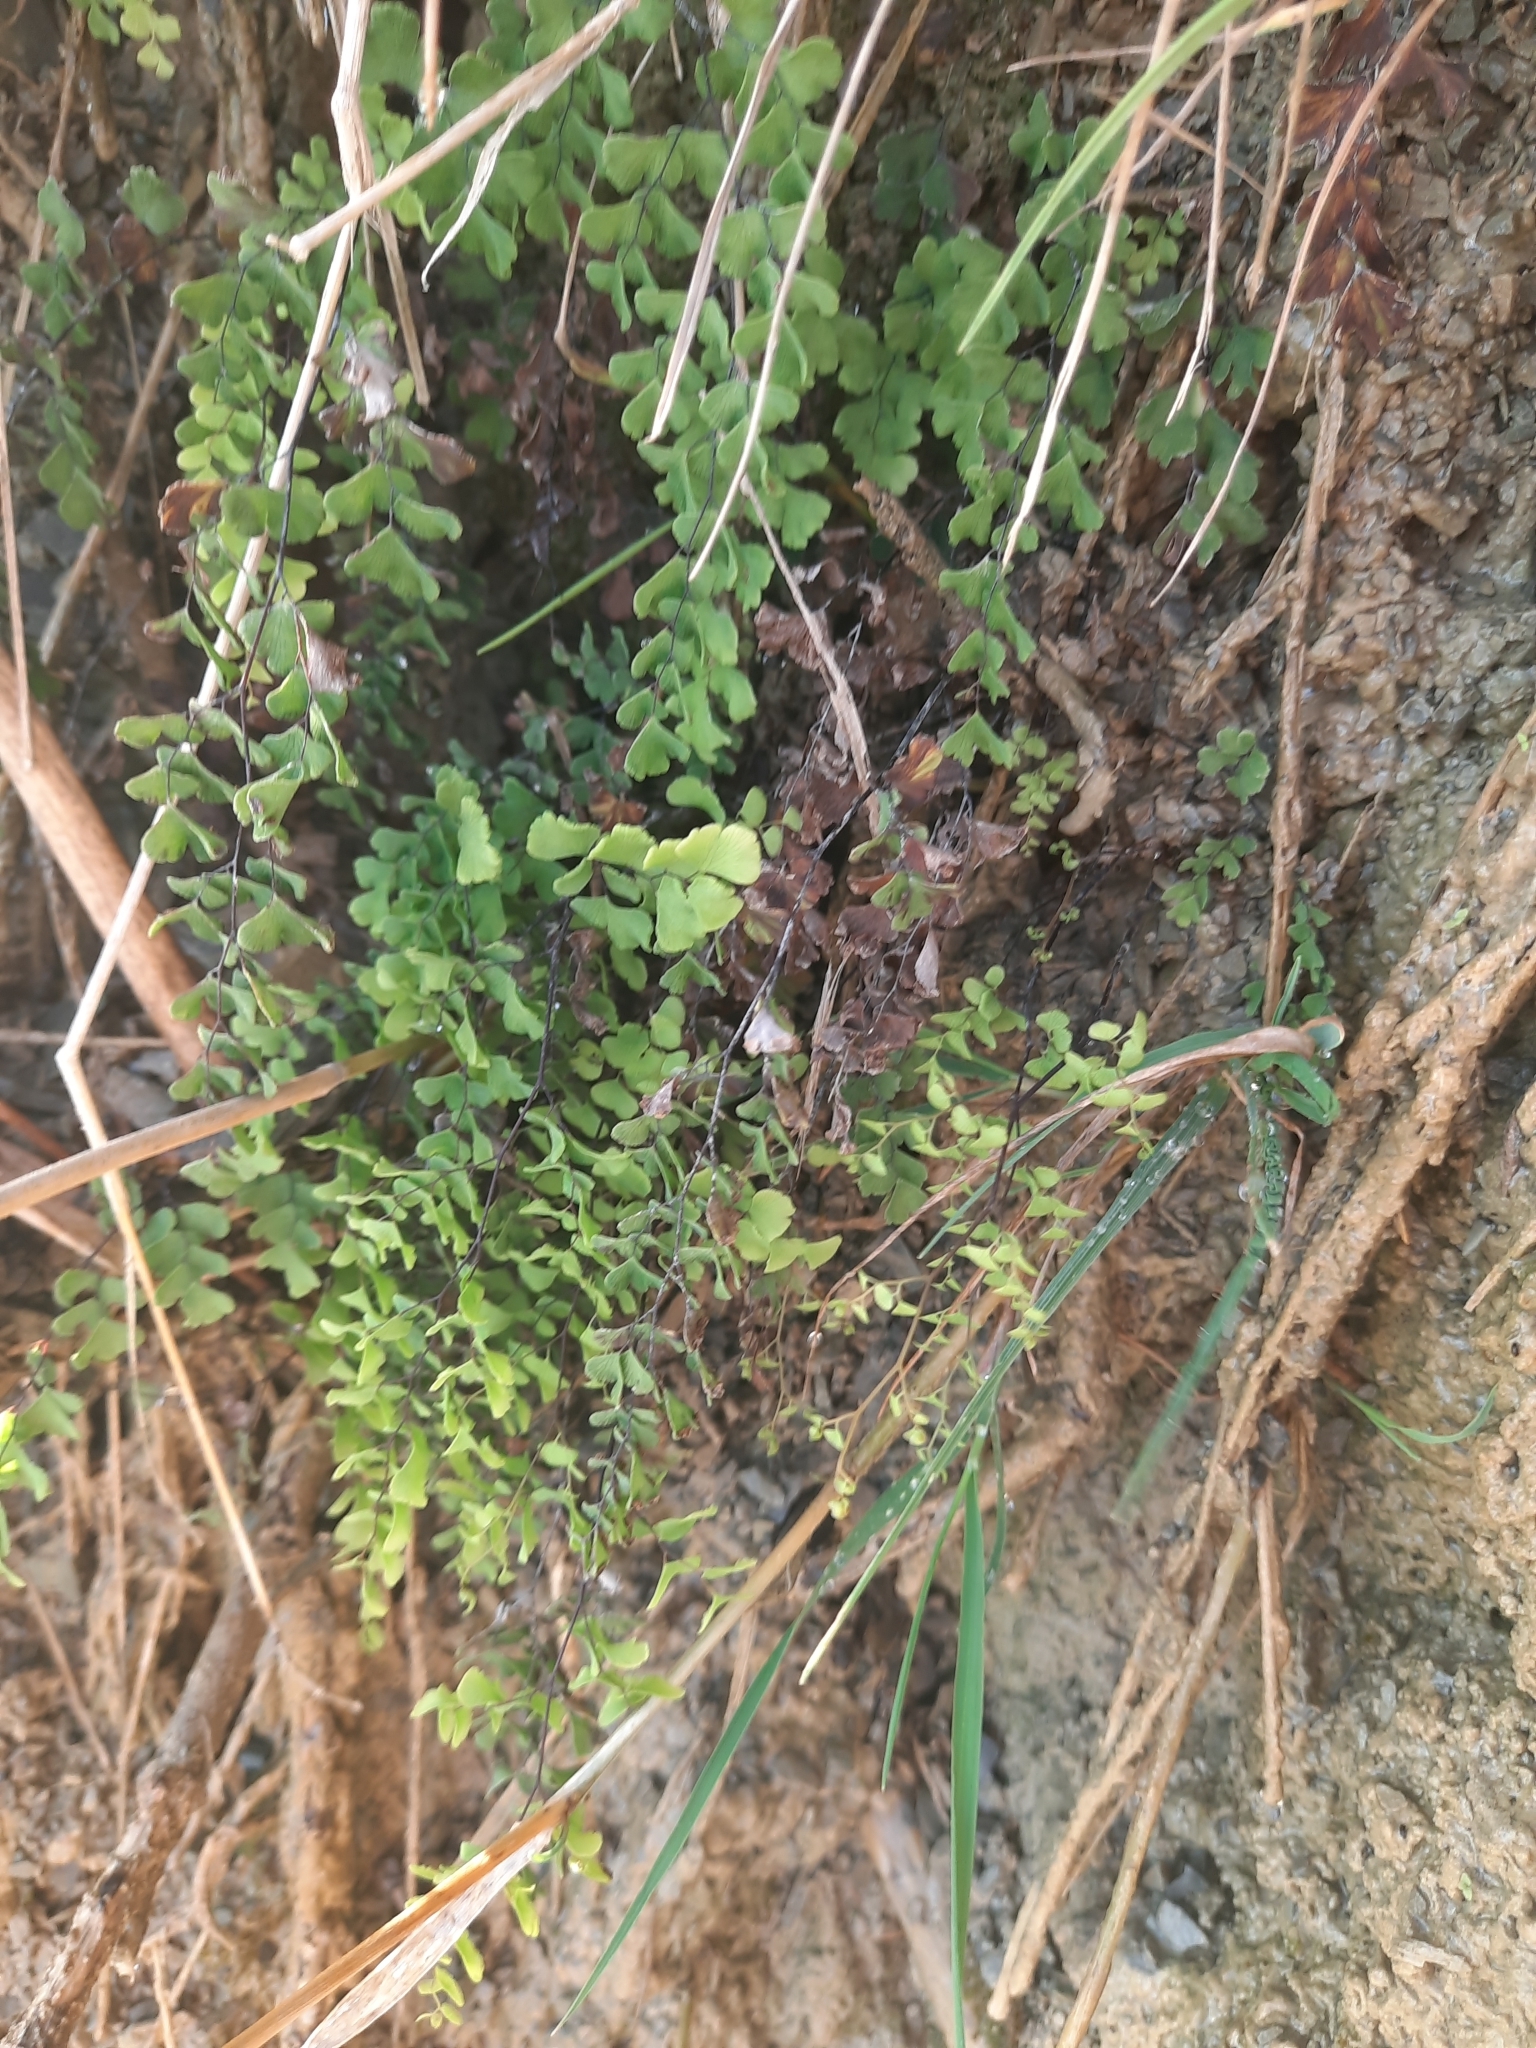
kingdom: Plantae
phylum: Tracheophyta
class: Polypodiopsida
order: Polypodiales
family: Pteridaceae
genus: Adiantum
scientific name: Adiantum capillus-veneris
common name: Maidenhair fern
